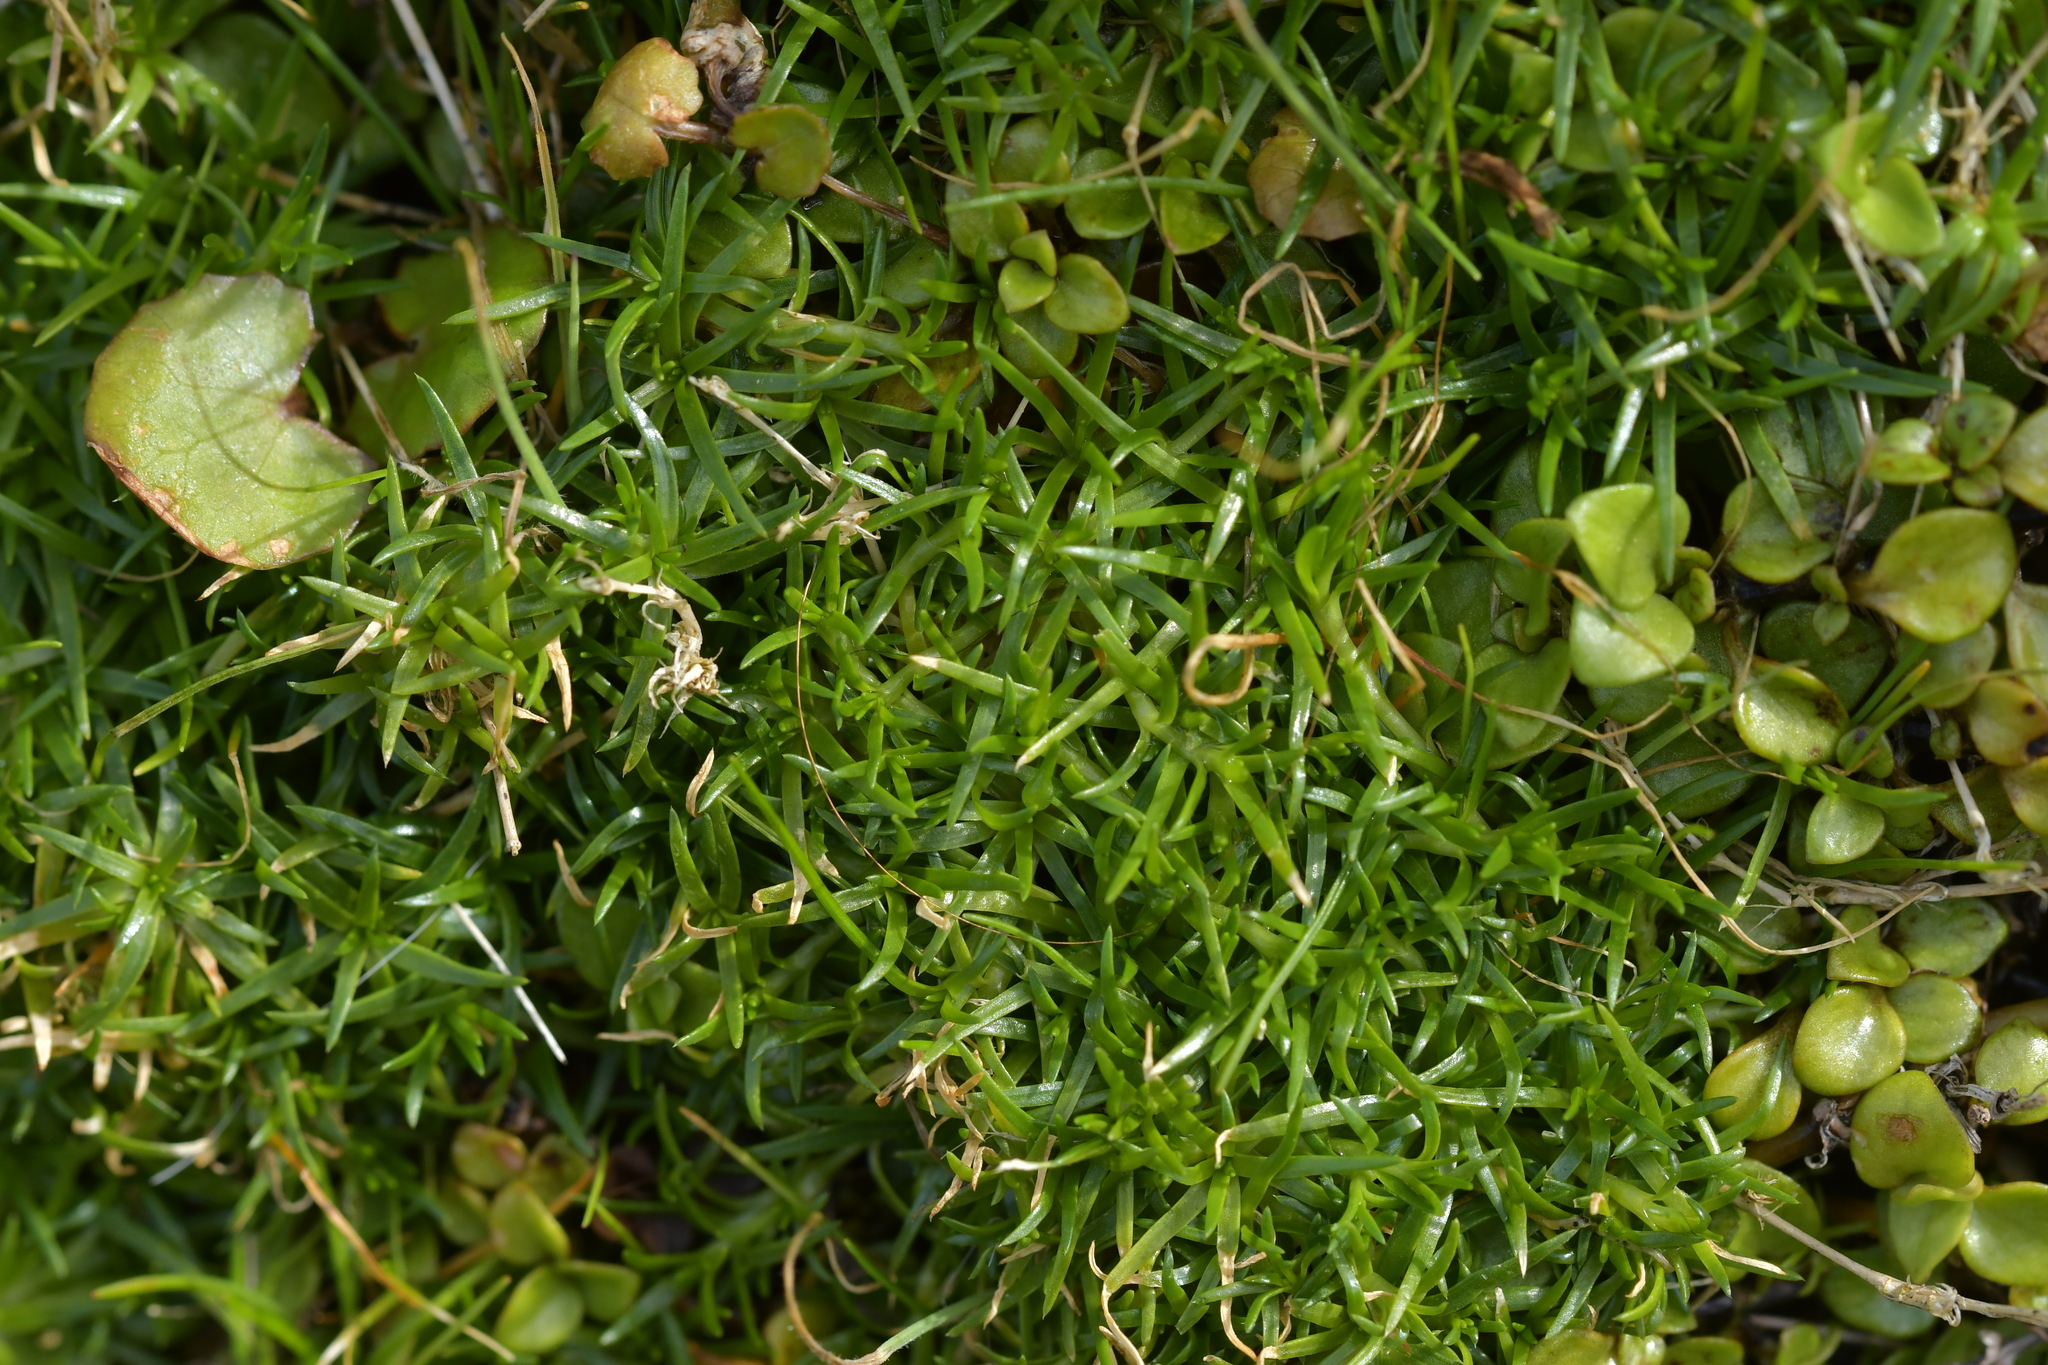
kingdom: Plantae
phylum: Tracheophyta
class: Magnoliopsida
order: Caryophyllales
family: Caryophyllaceae
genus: Sagina
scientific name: Sagina procumbens
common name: Procumbent pearlwort
